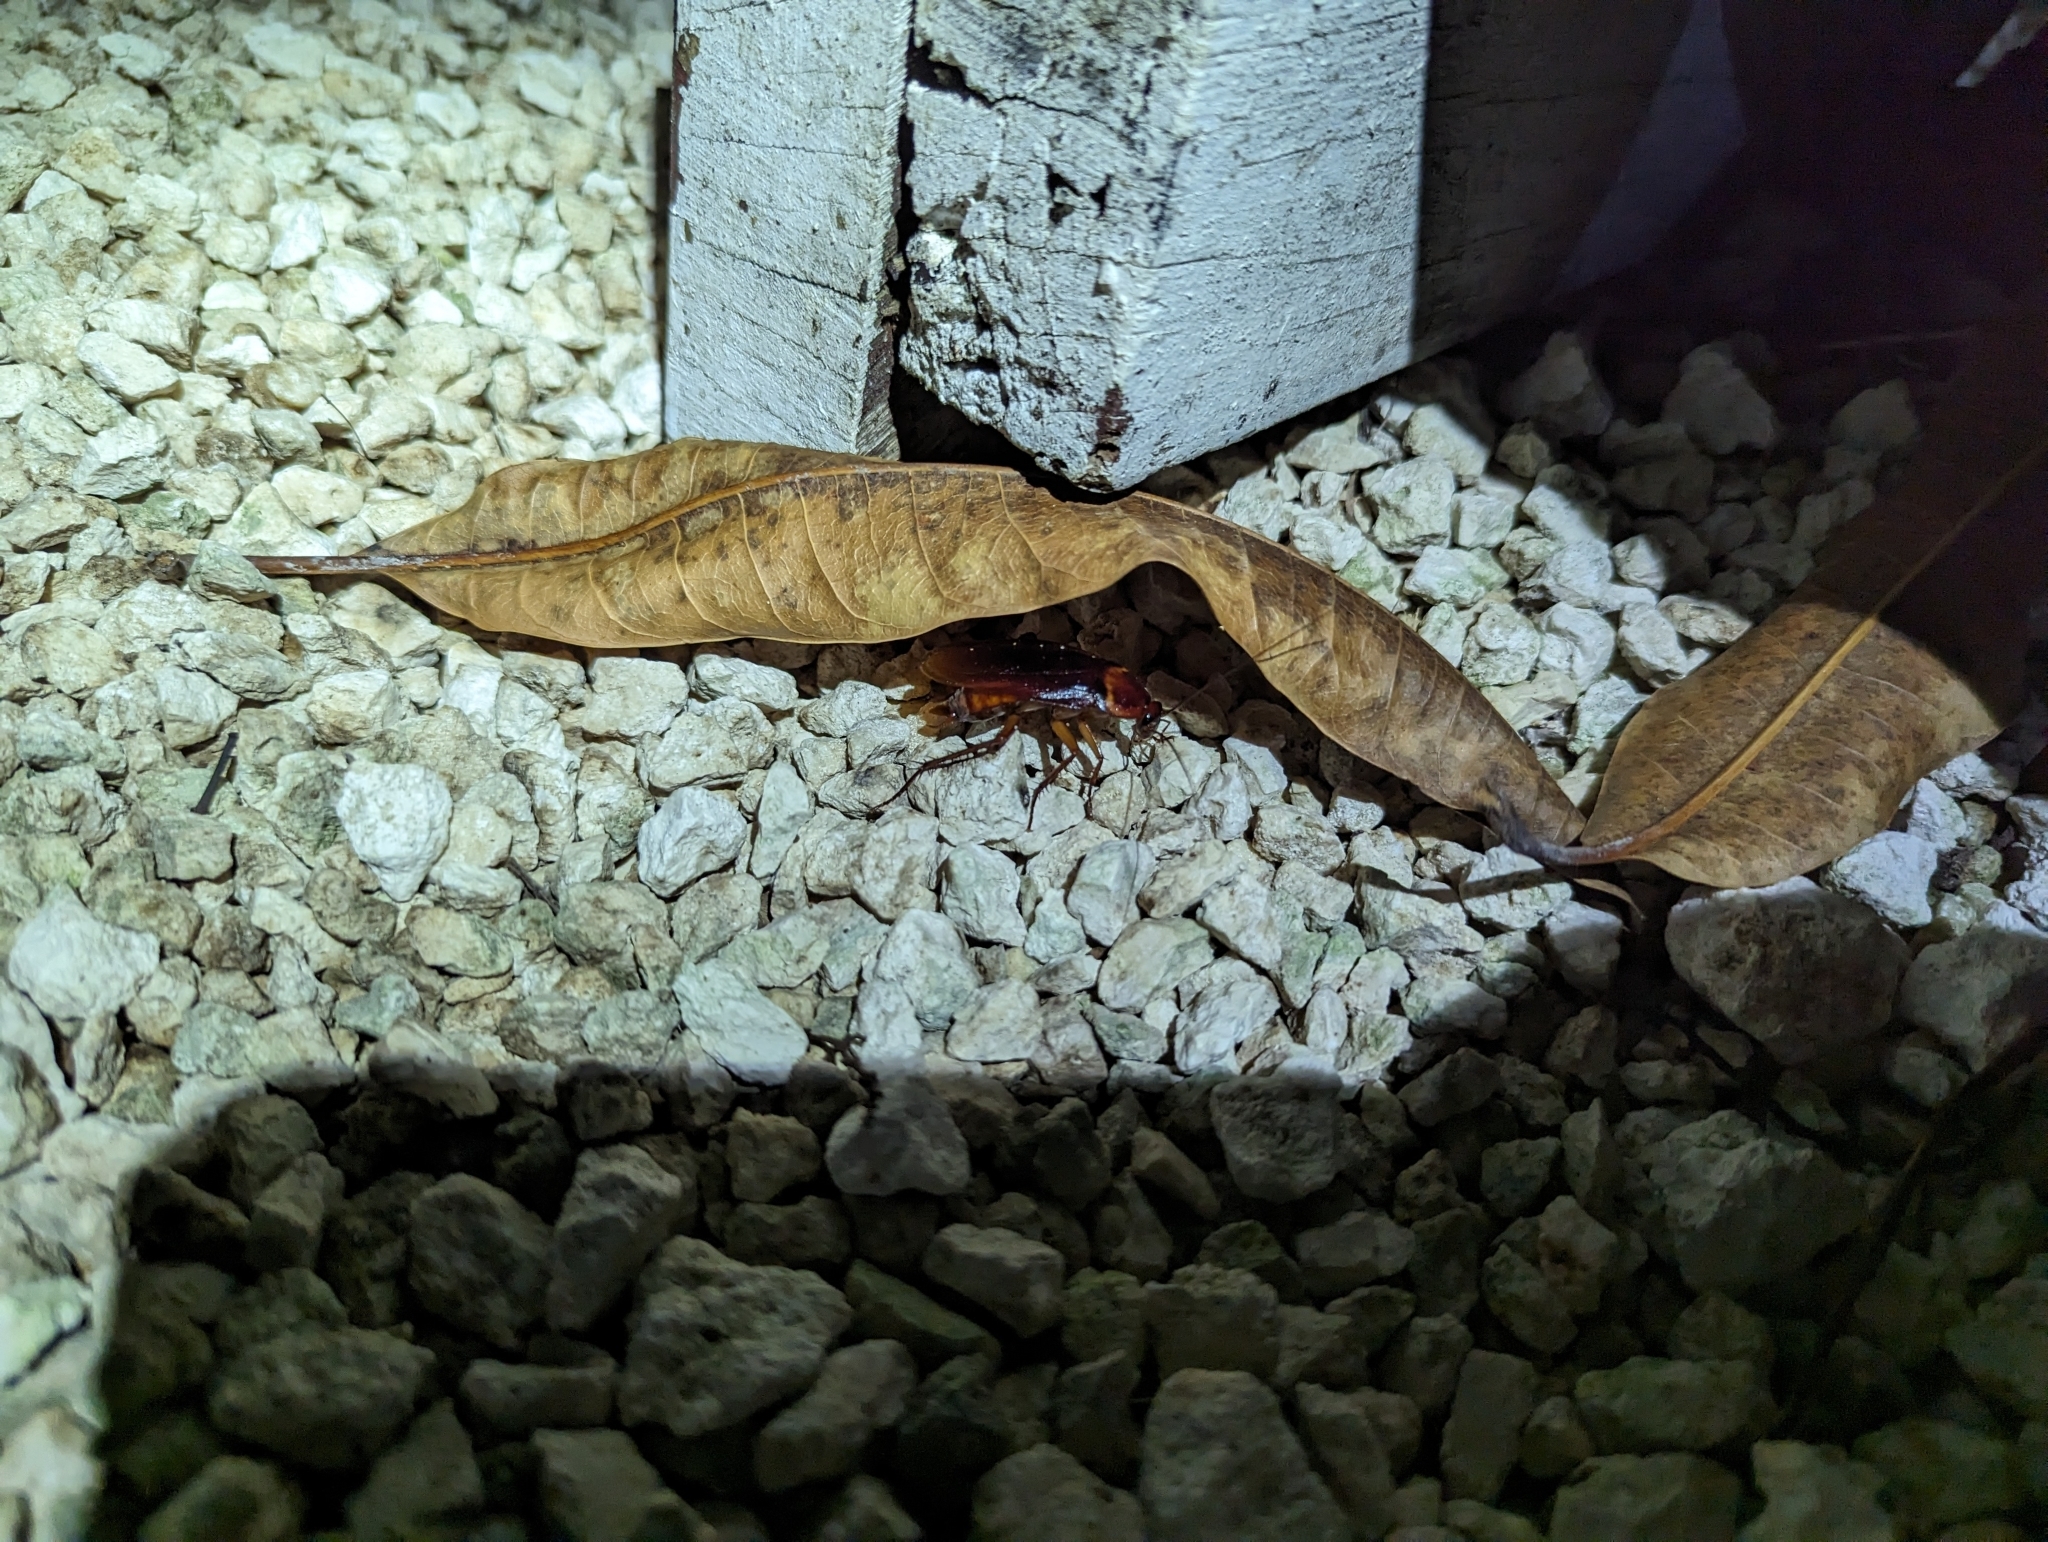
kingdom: Animalia
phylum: Arthropoda
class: Insecta
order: Blattodea
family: Blattidae
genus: Periplaneta
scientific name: Periplaneta americana
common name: American cockroach
